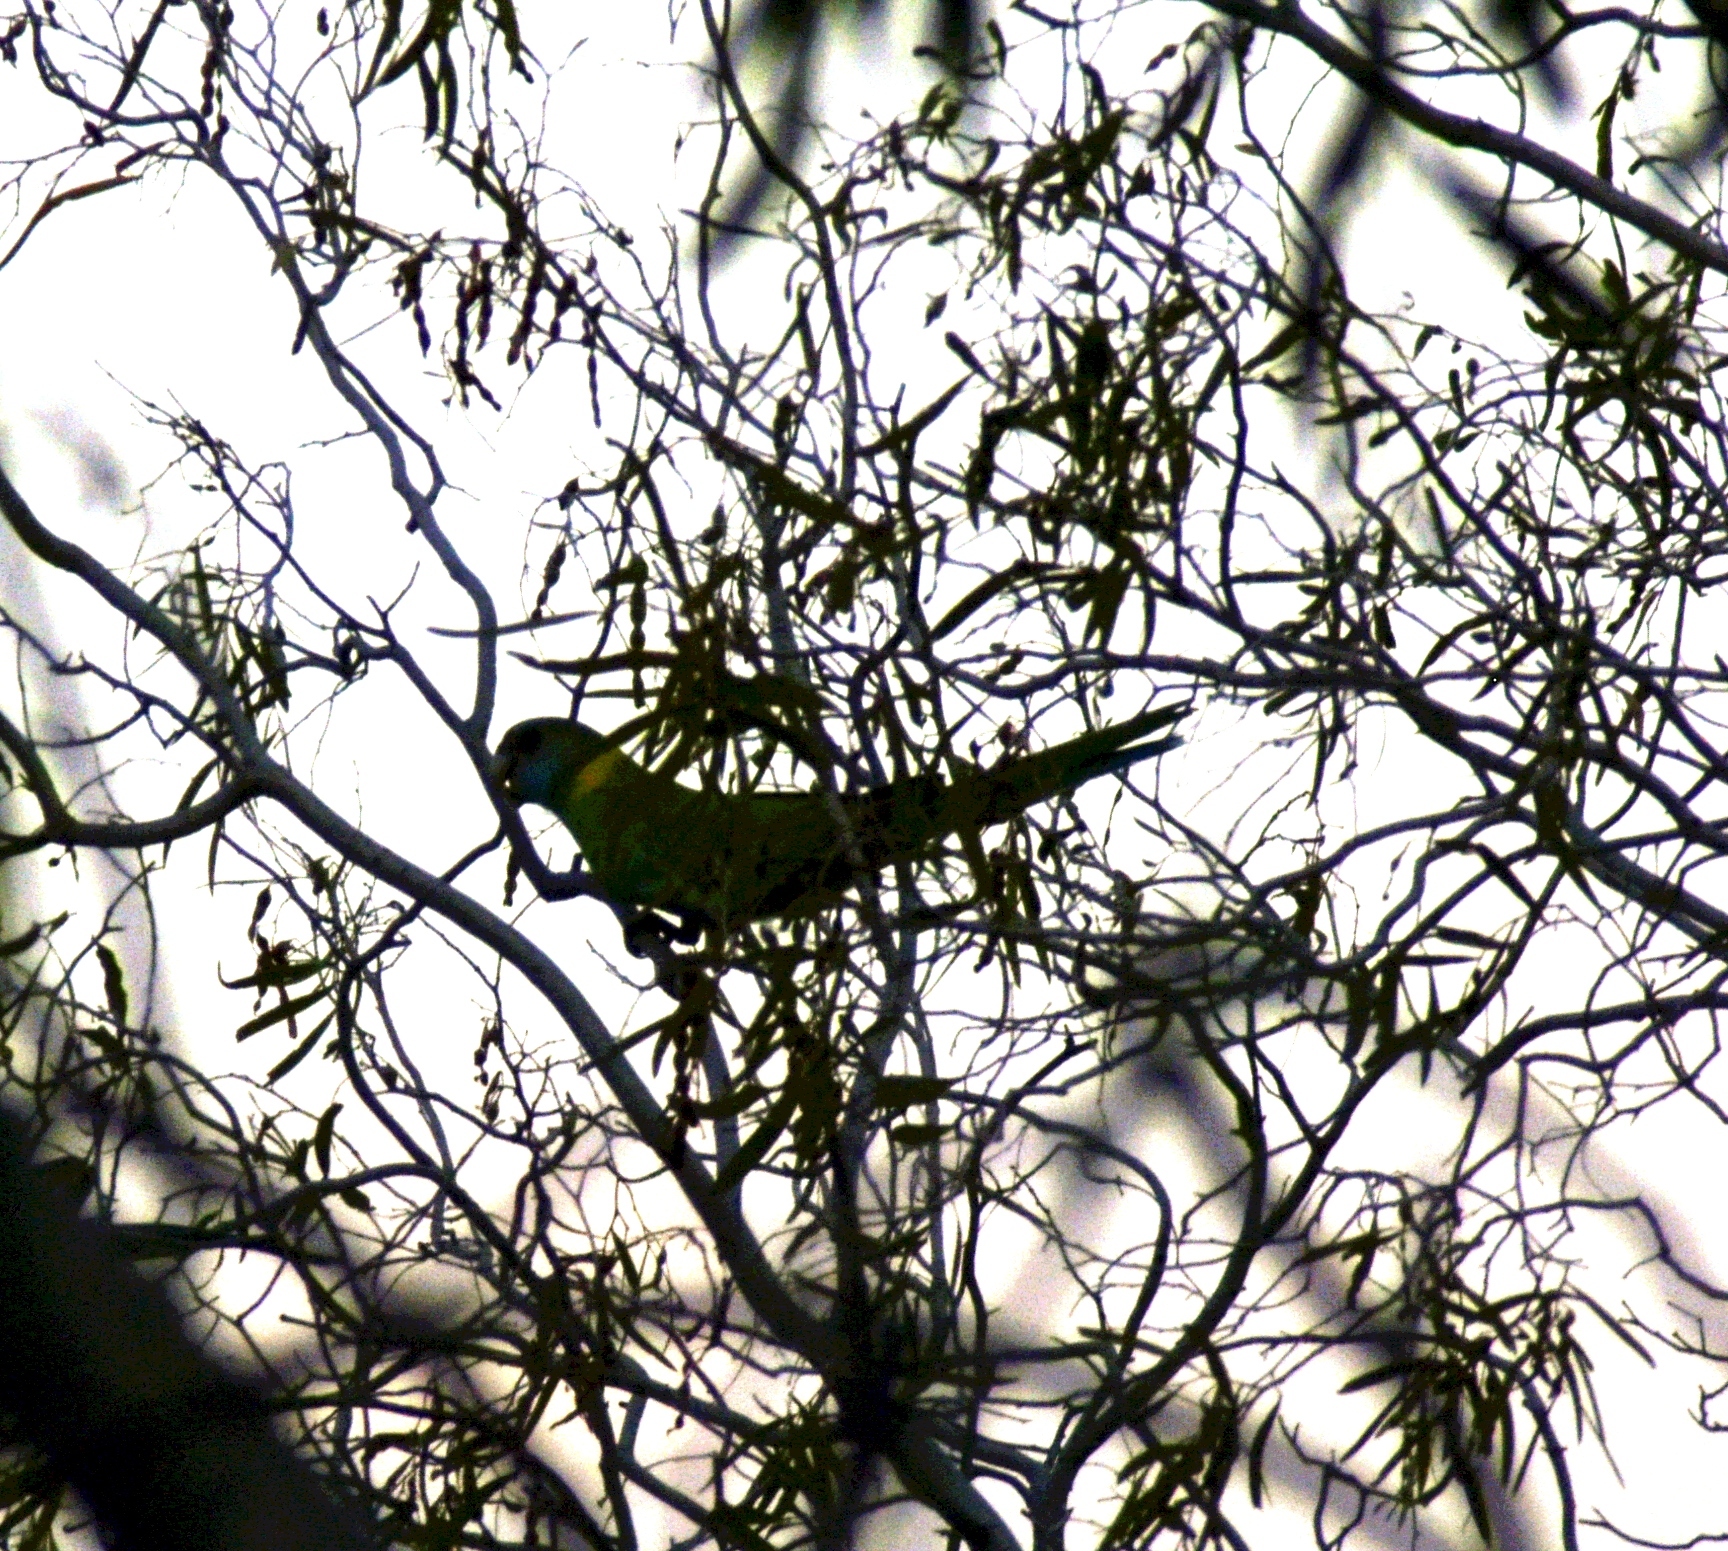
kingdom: Animalia
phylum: Chordata
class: Aves
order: Psittaciformes
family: Psittacidae
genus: Barnardius
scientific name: Barnardius zonarius
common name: Australian ringneck
